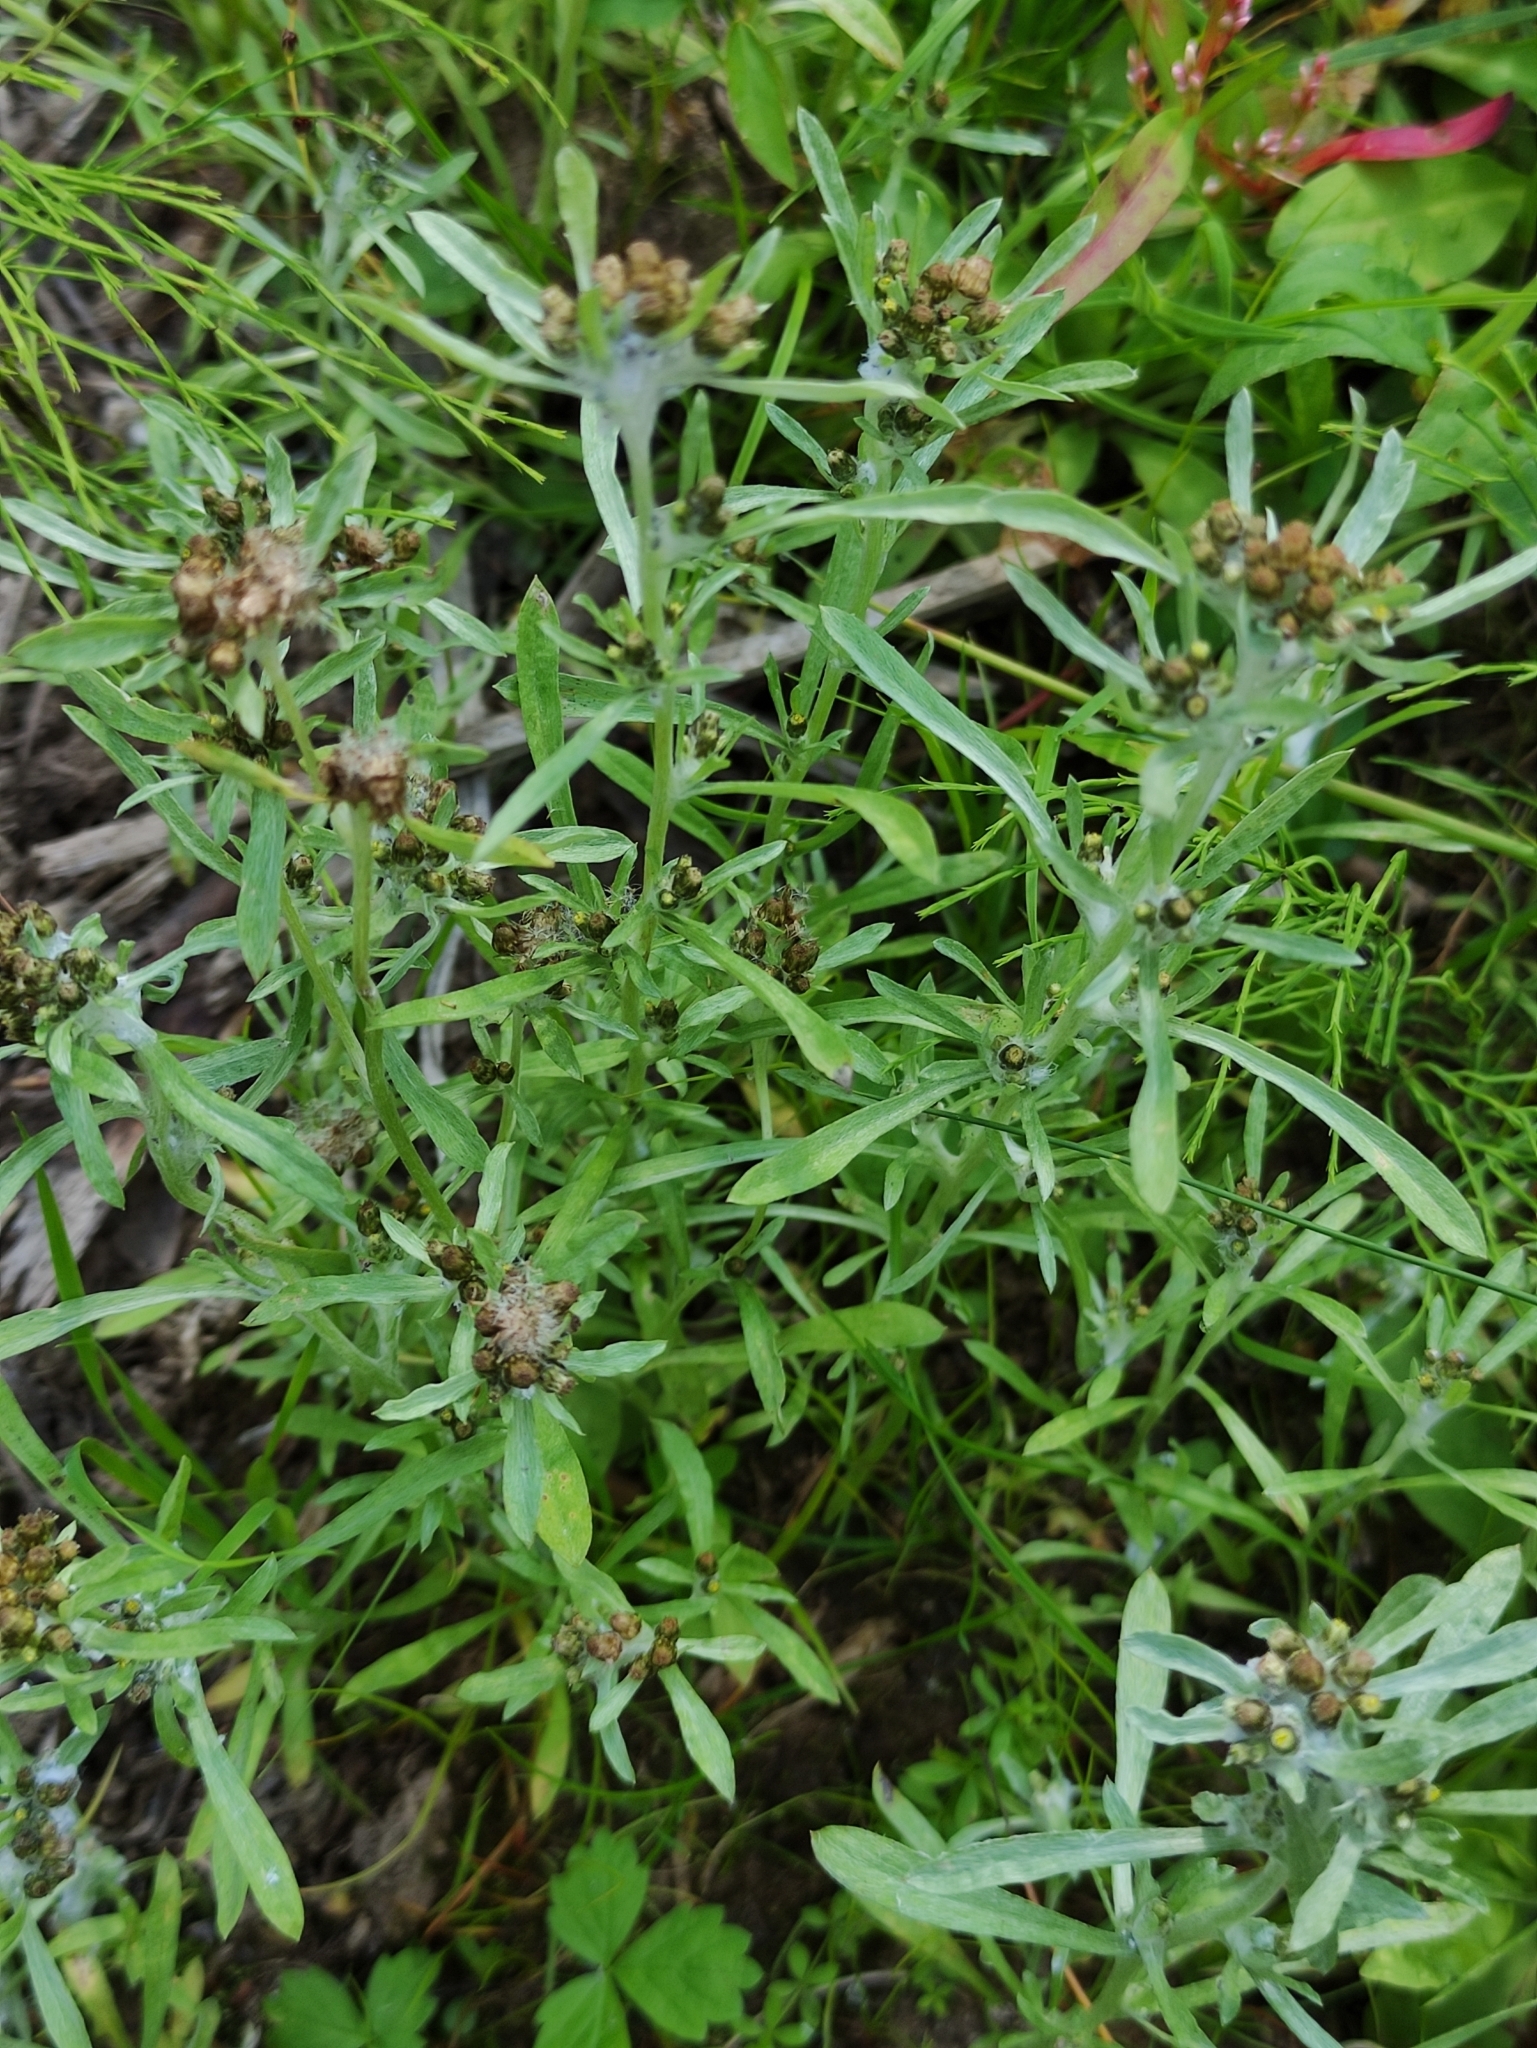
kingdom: Plantae
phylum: Tracheophyta
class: Magnoliopsida
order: Asterales
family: Asteraceae
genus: Gnaphalium
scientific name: Gnaphalium uliginosum
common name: Marsh cudweed
